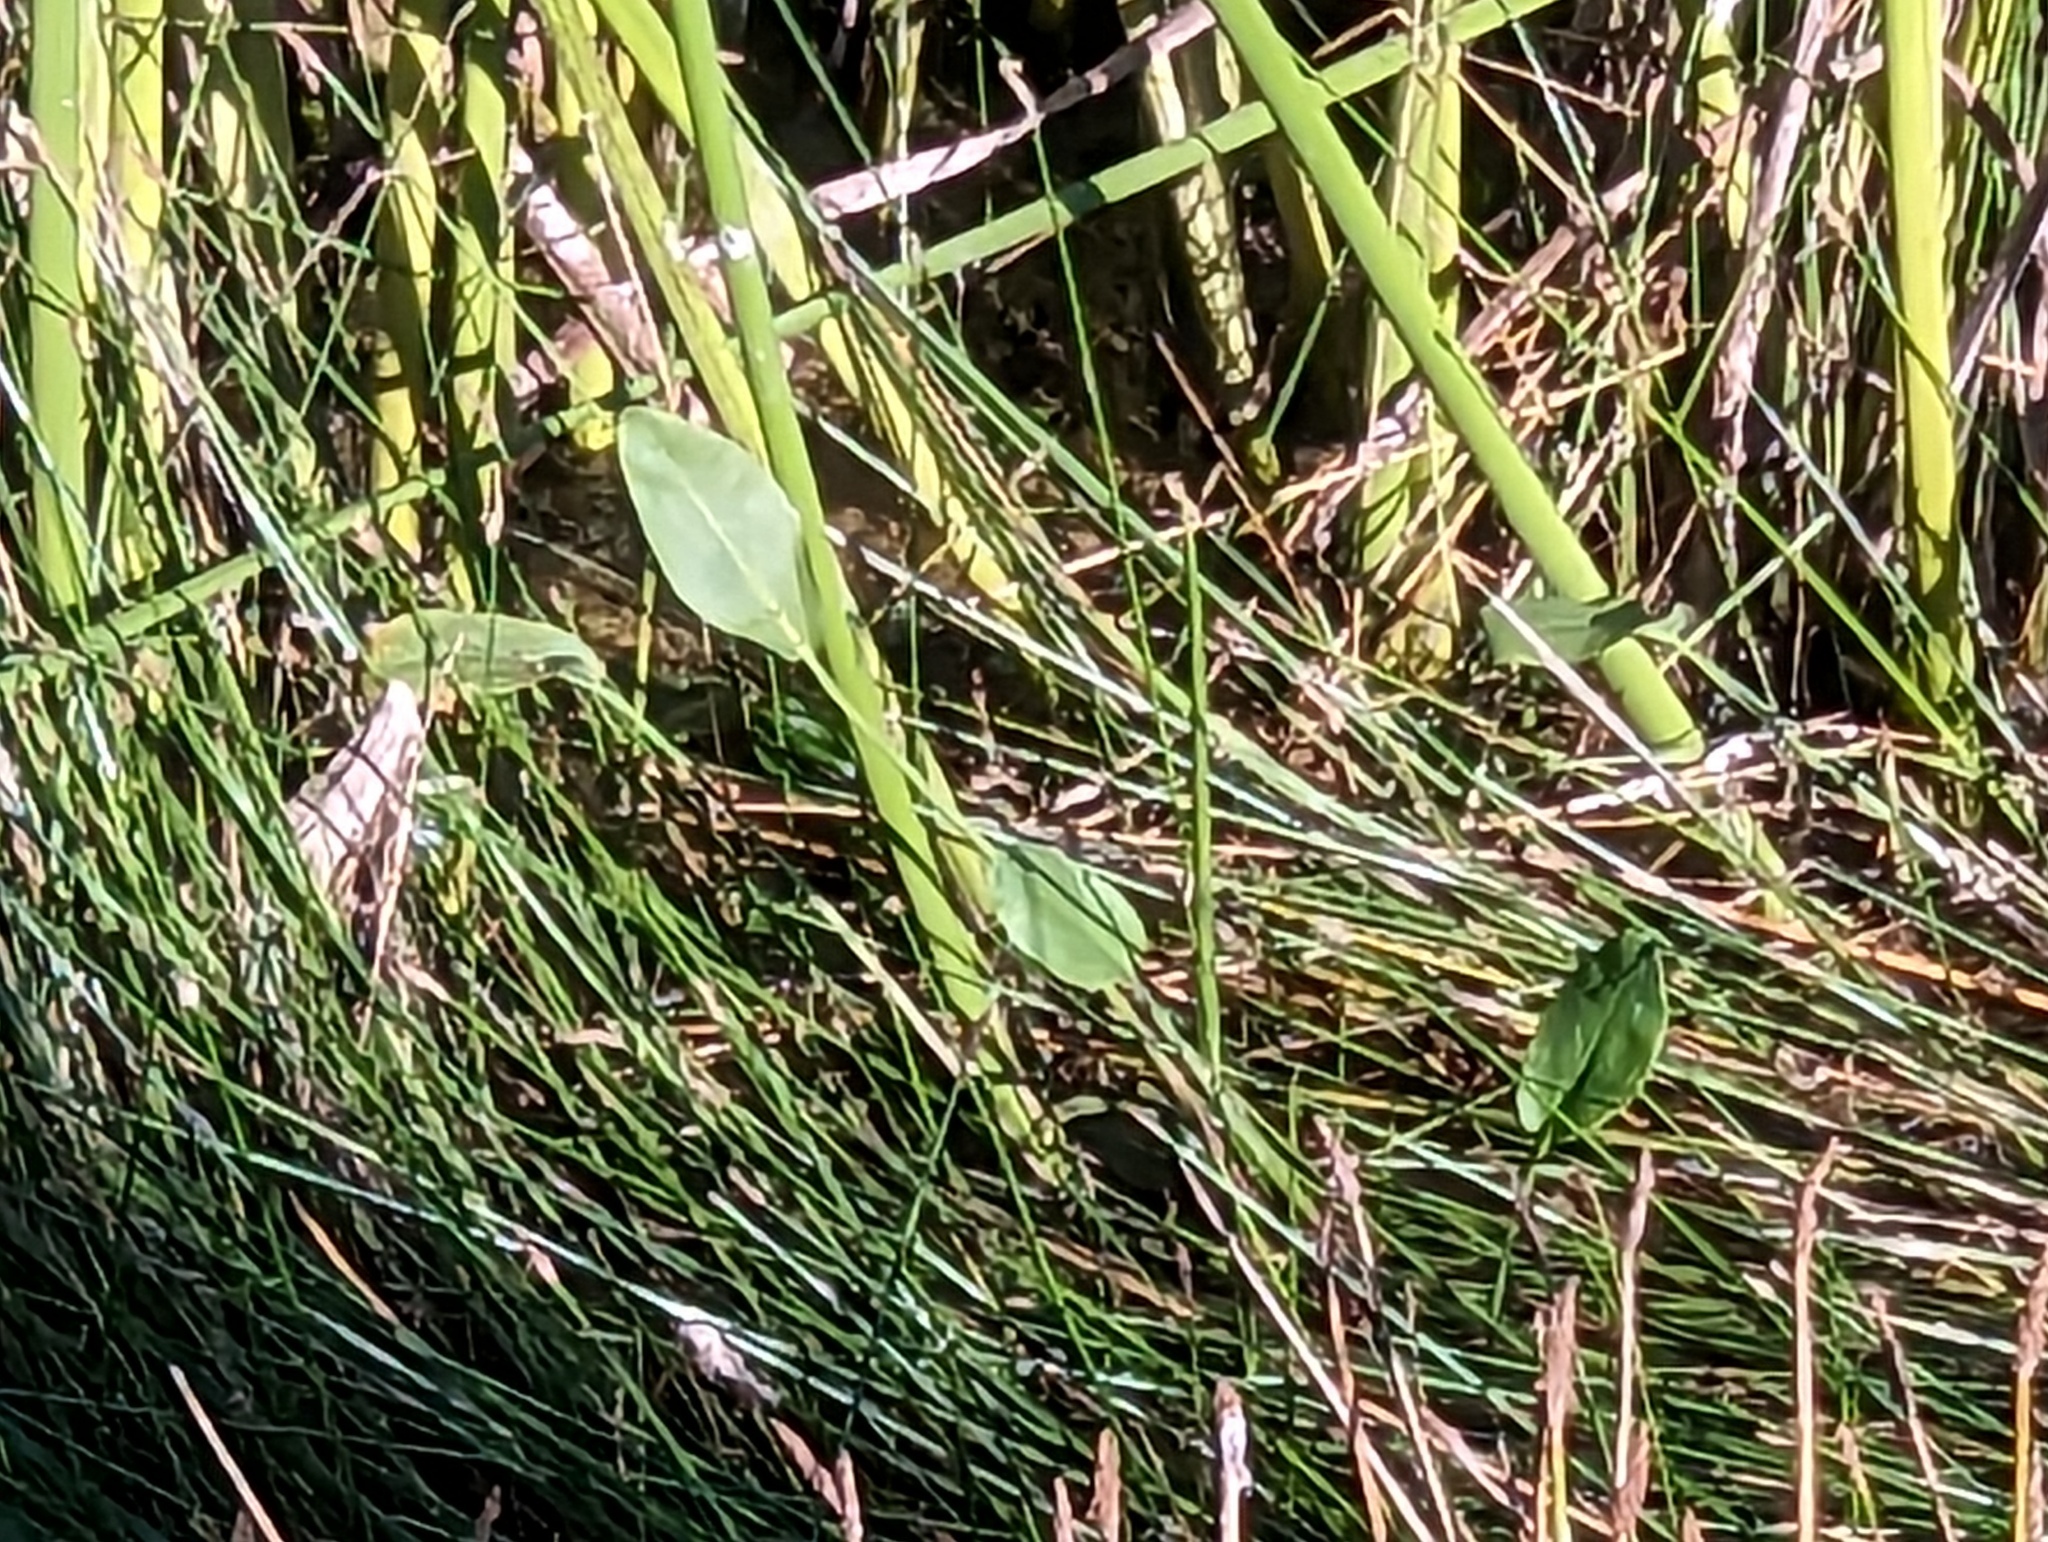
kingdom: Plantae
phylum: Tracheophyta
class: Liliopsida
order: Alismatales
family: Alismataceae
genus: Alisma
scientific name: Alisma triviale
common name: Northern water-plantain
